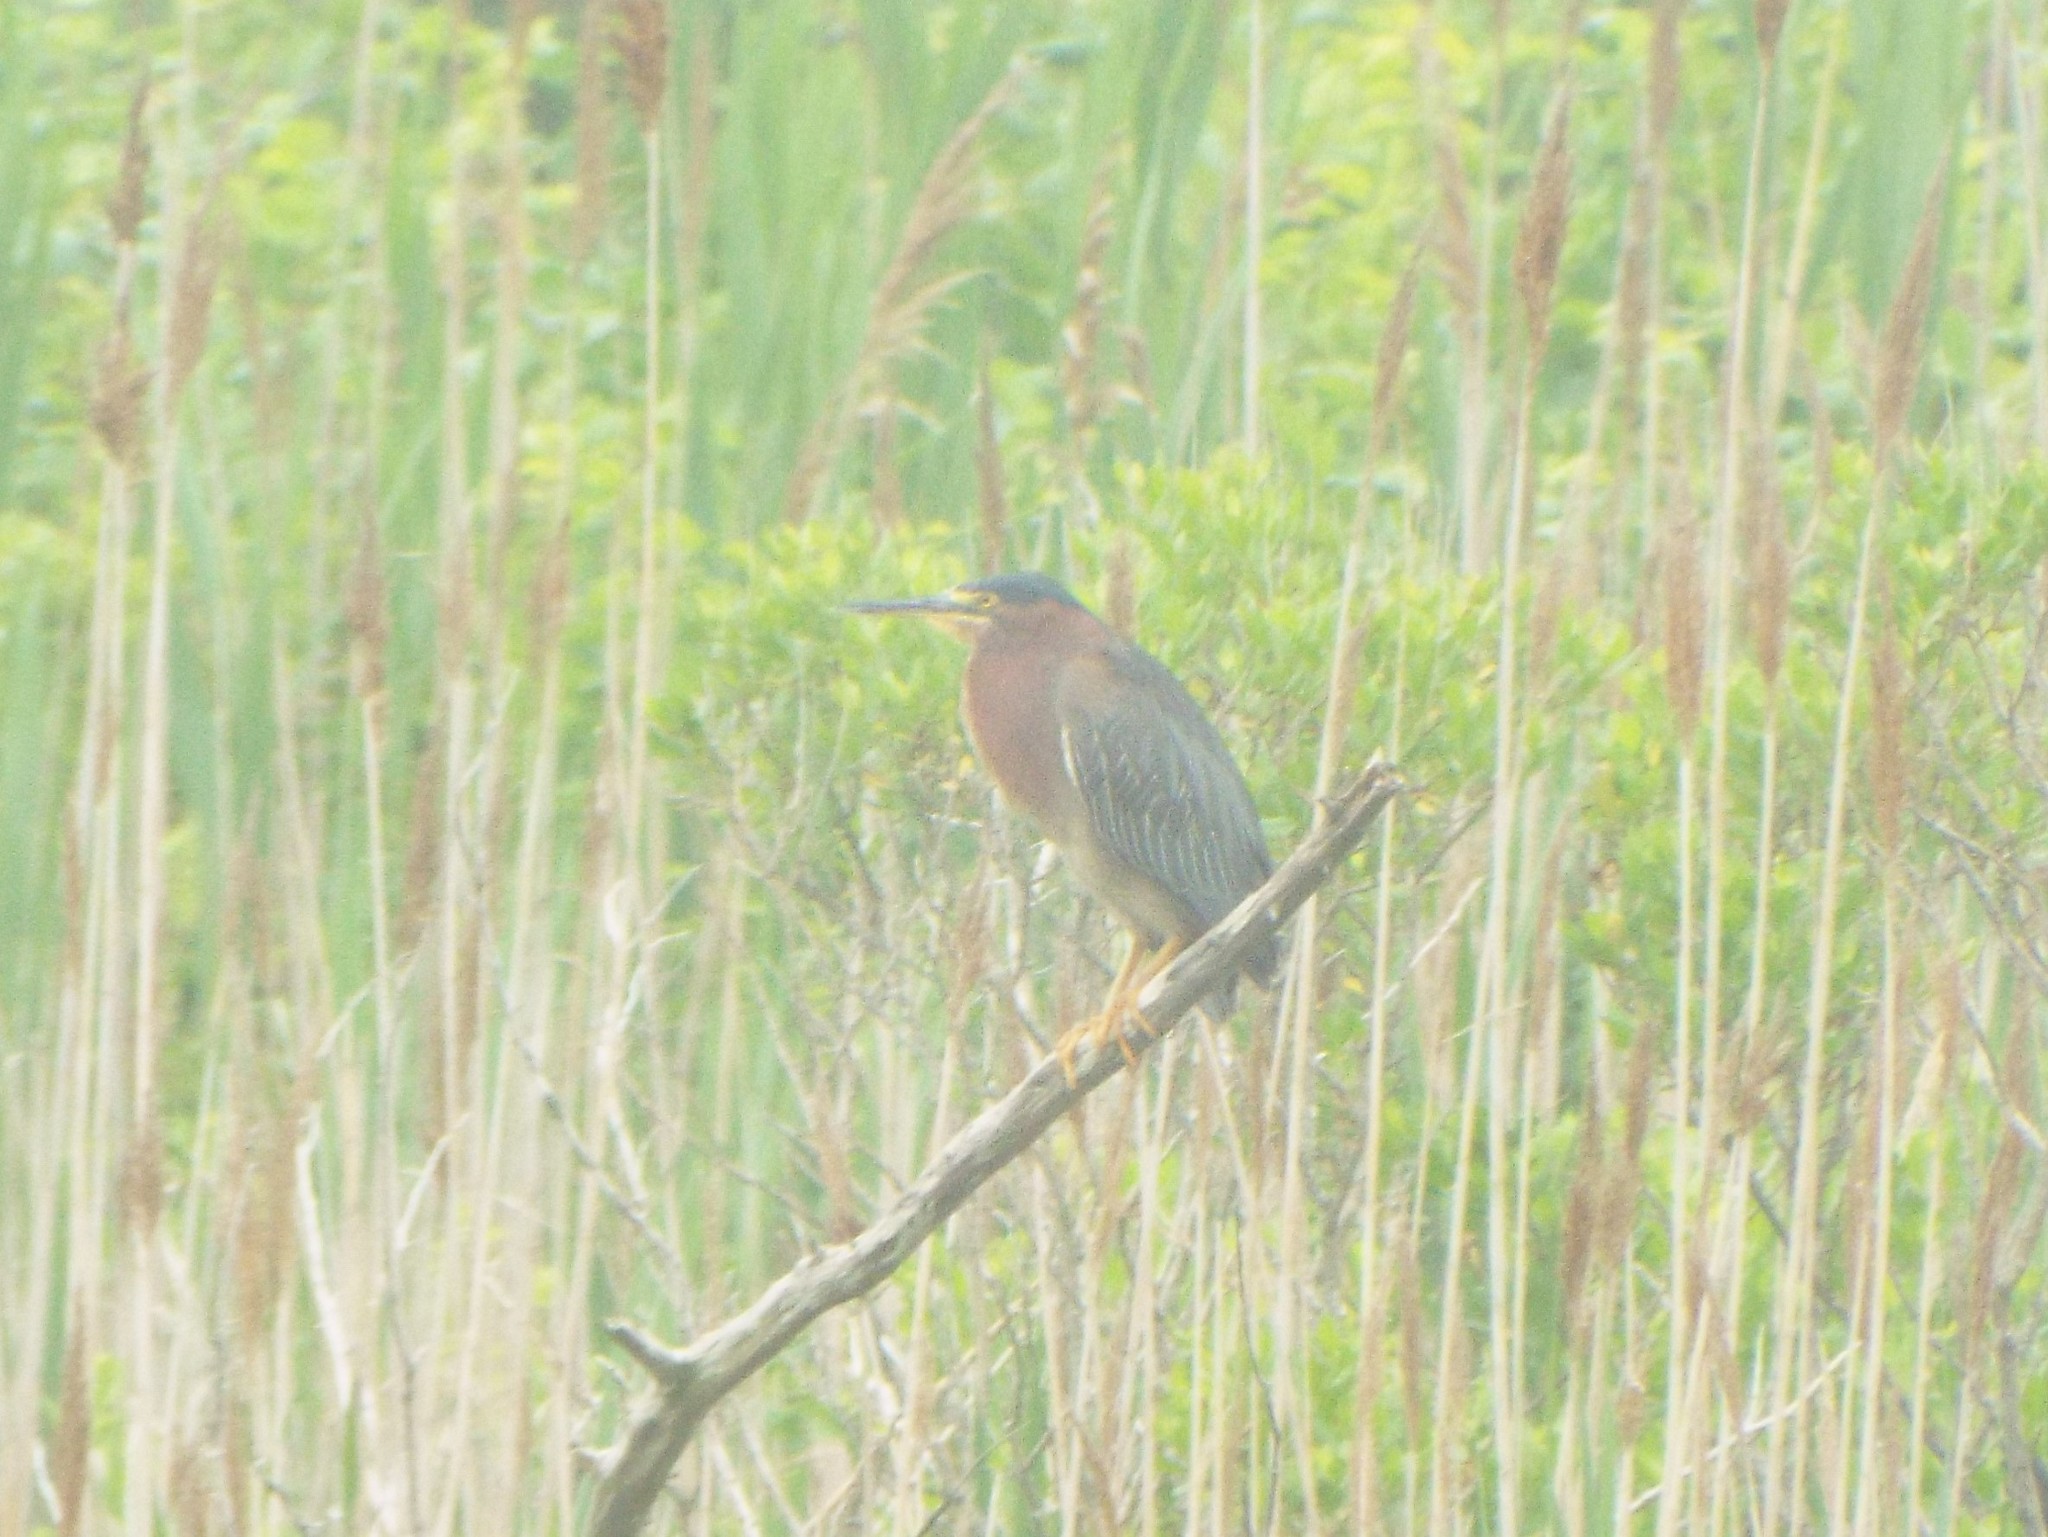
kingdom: Animalia
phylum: Chordata
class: Aves
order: Pelecaniformes
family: Ardeidae
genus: Butorides
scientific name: Butorides virescens
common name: Green heron
